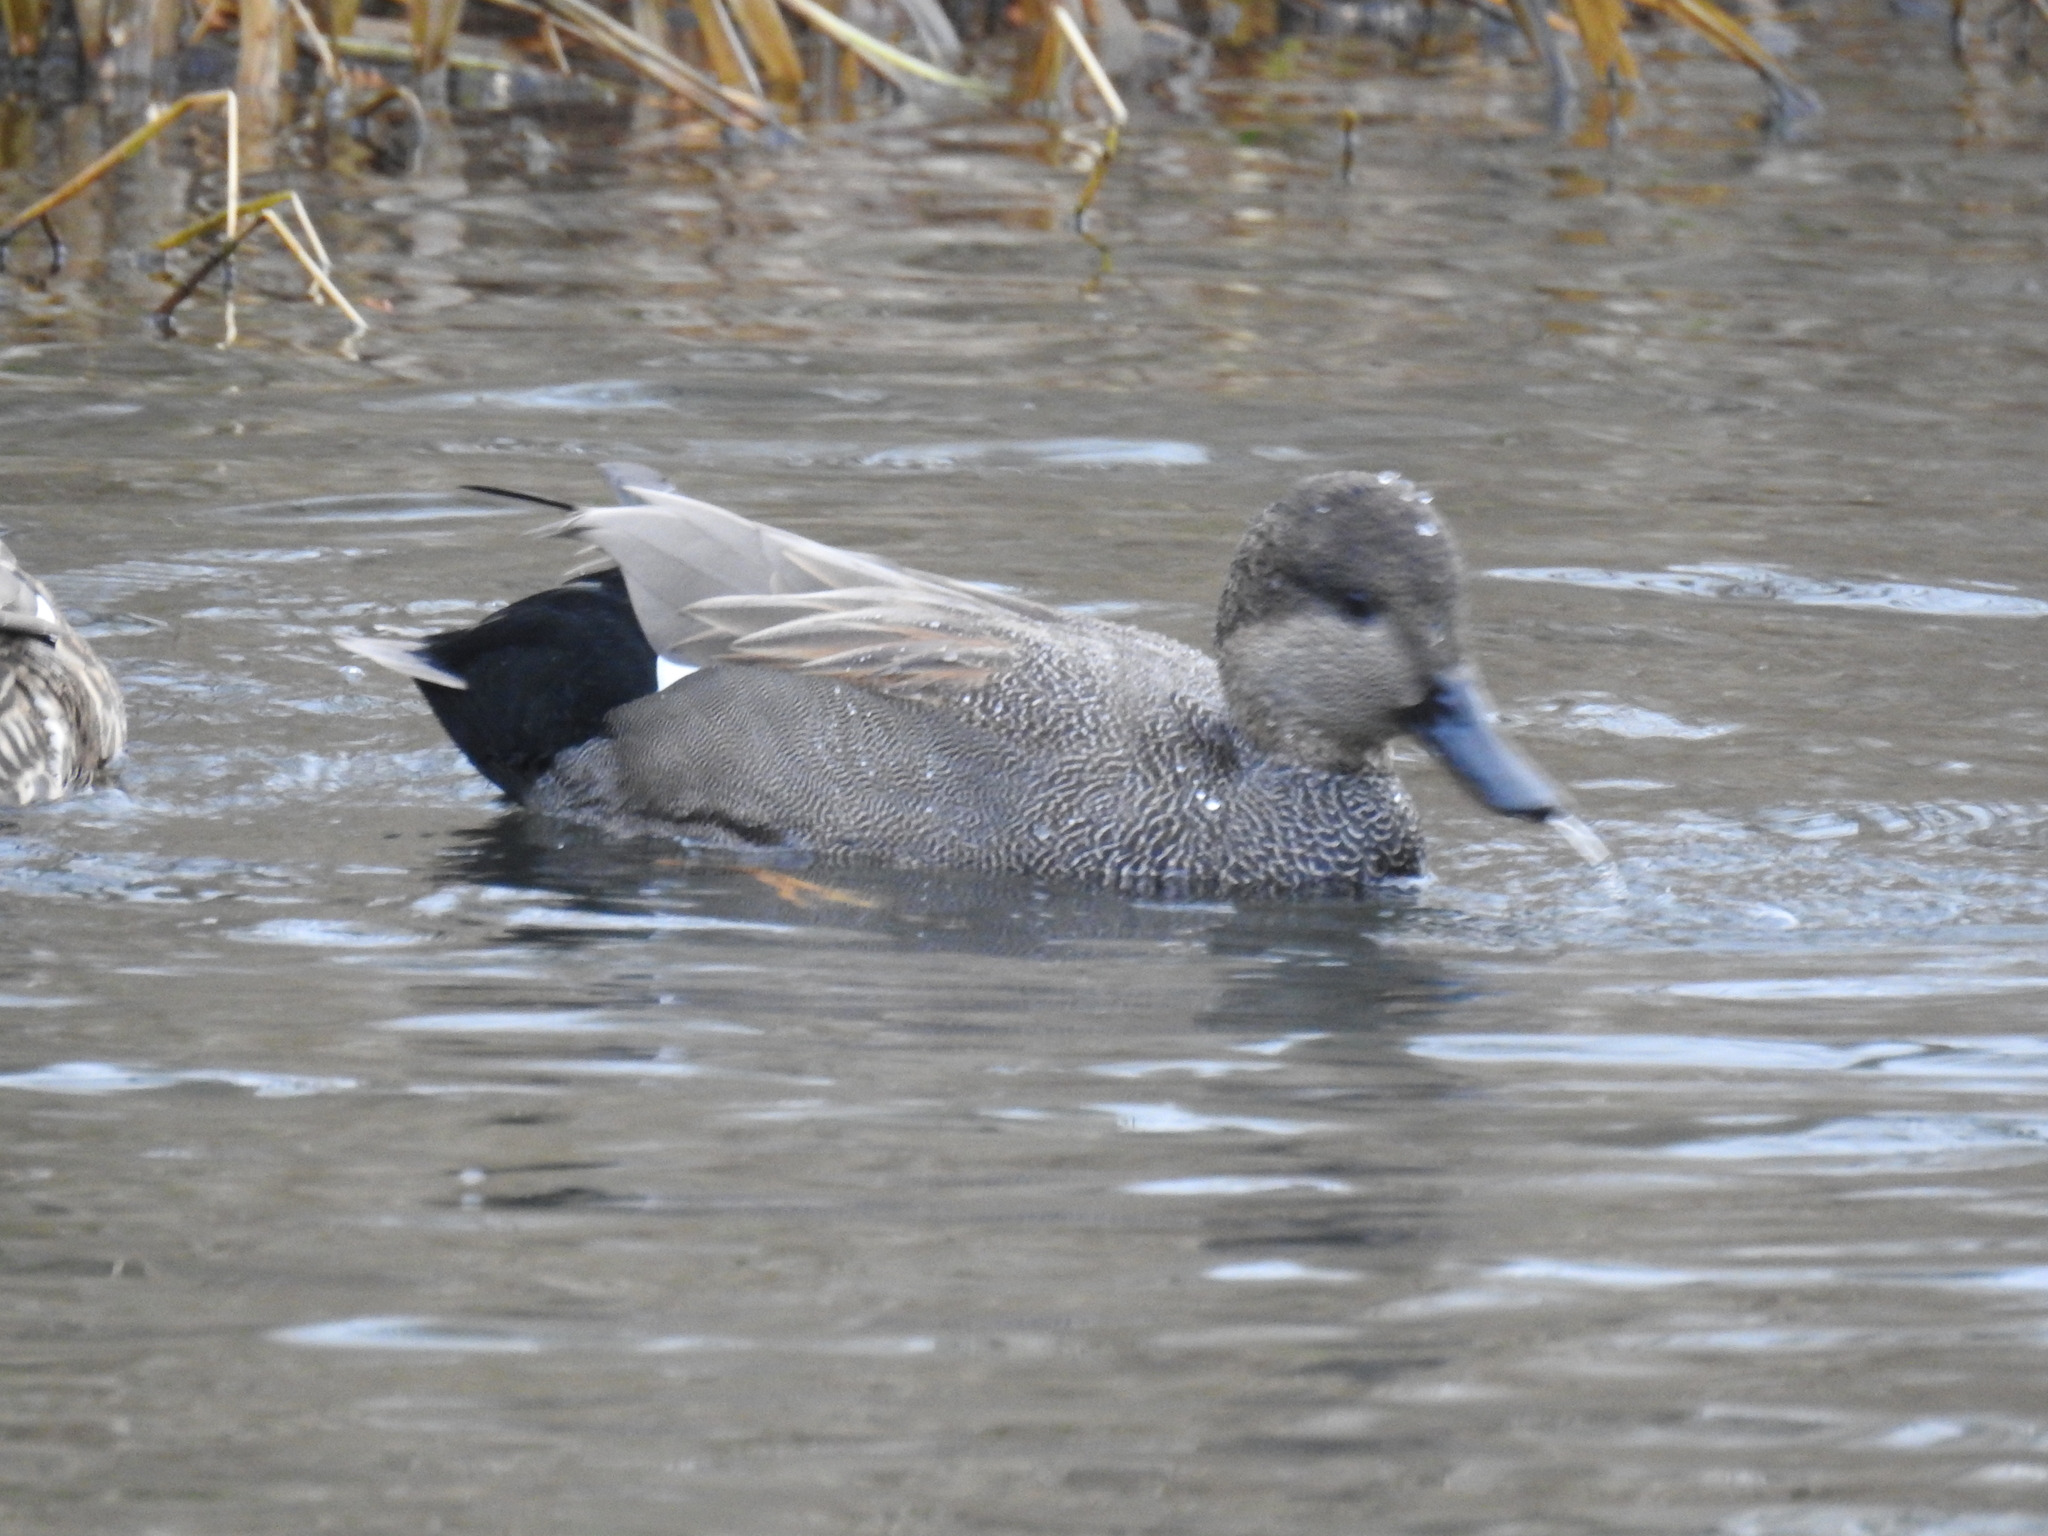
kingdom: Animalia
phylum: Chordata
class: Aves
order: Anseriformes
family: Anatidae
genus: Mareca
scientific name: Mareca strepera
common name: Gadwall
